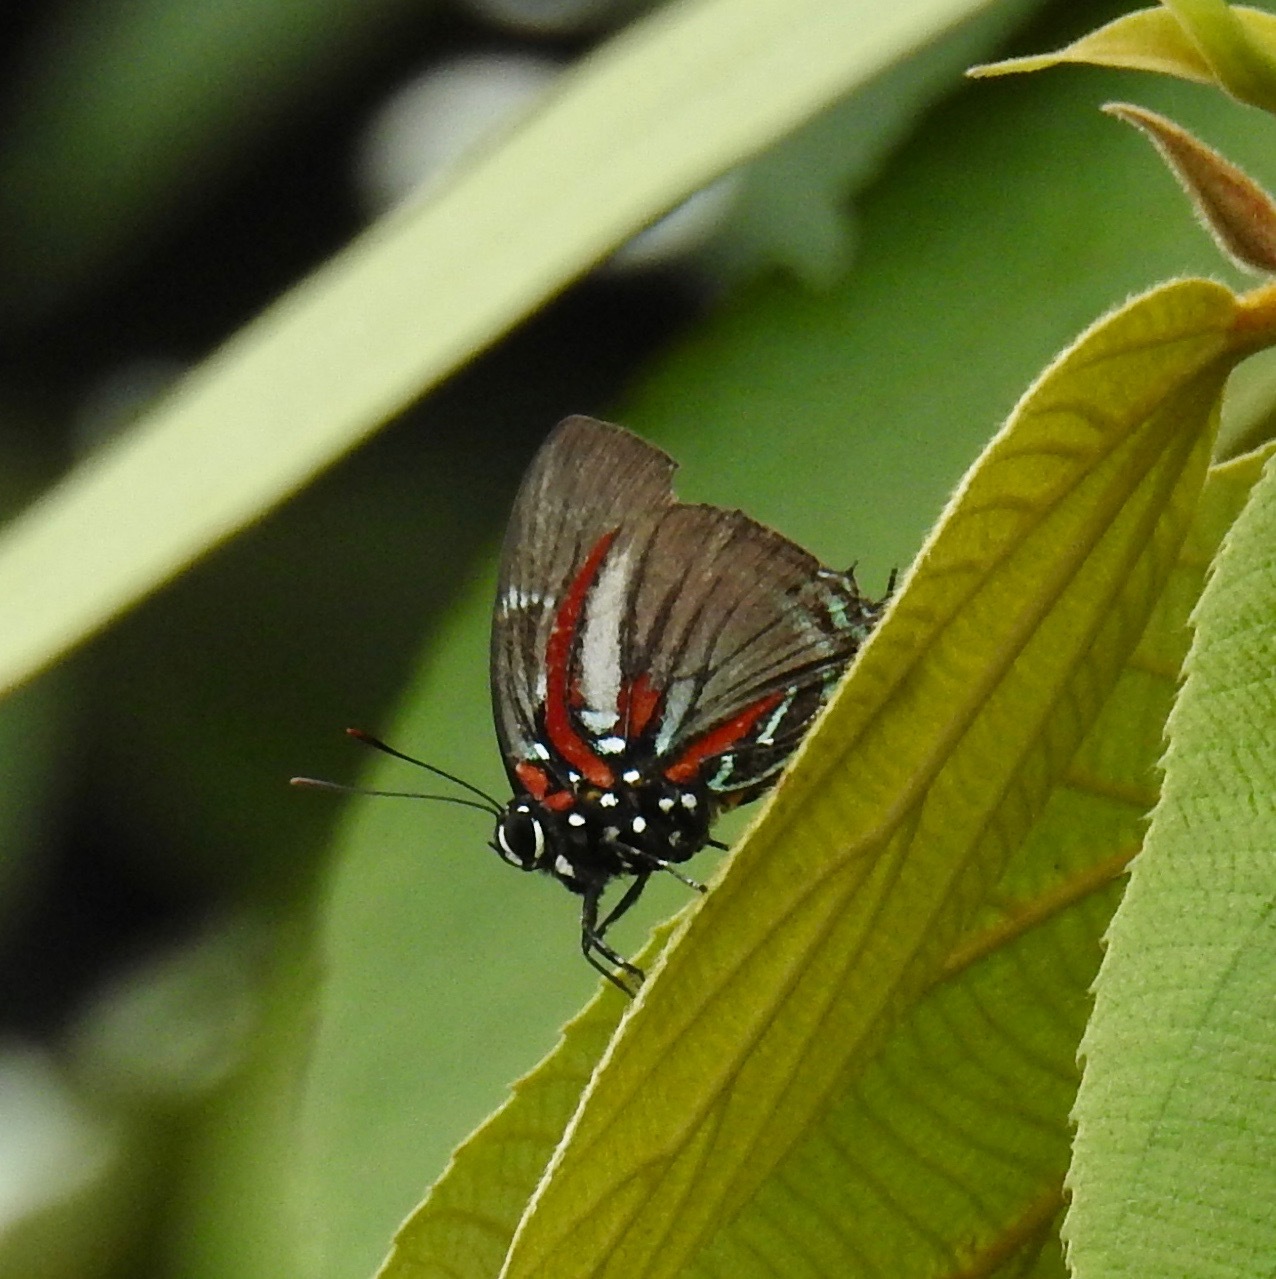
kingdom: Animalia
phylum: Arthropoda
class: Insecta
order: Lepidoptera
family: Lycaenidae
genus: Thecla
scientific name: Thecla bacis
